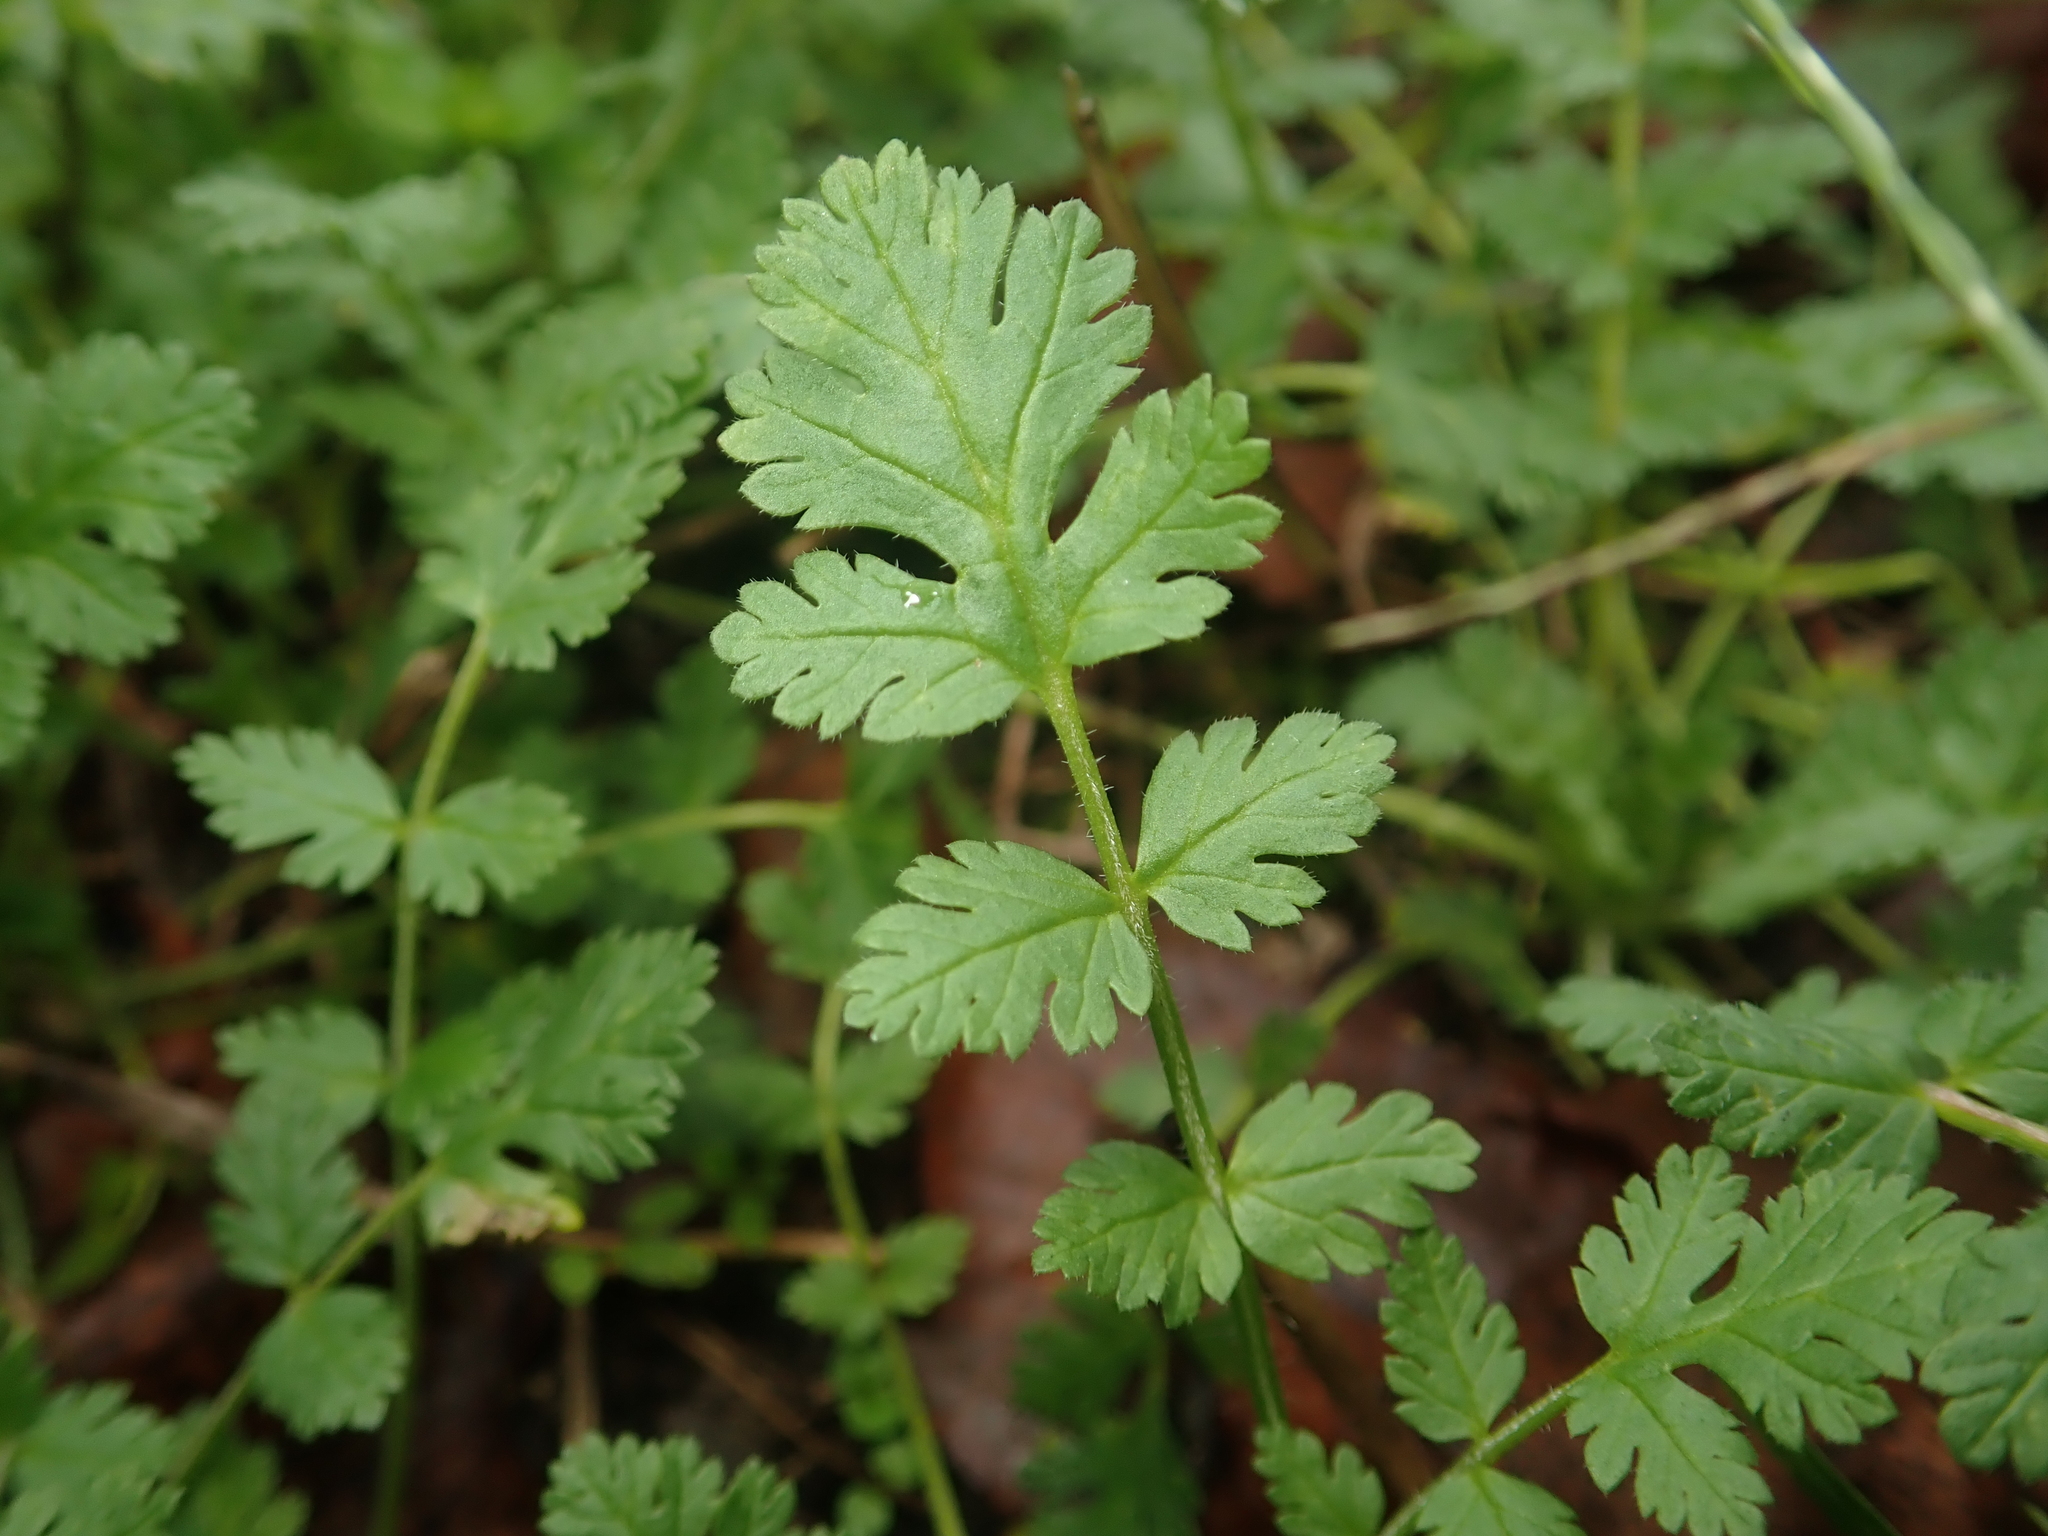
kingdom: Plantae
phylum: Tracheophyta
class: Magnoliopsida
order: Geraniales
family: Geraniaceae
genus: Erodium
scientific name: Erodium cicutarium
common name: Common stork's-bill
